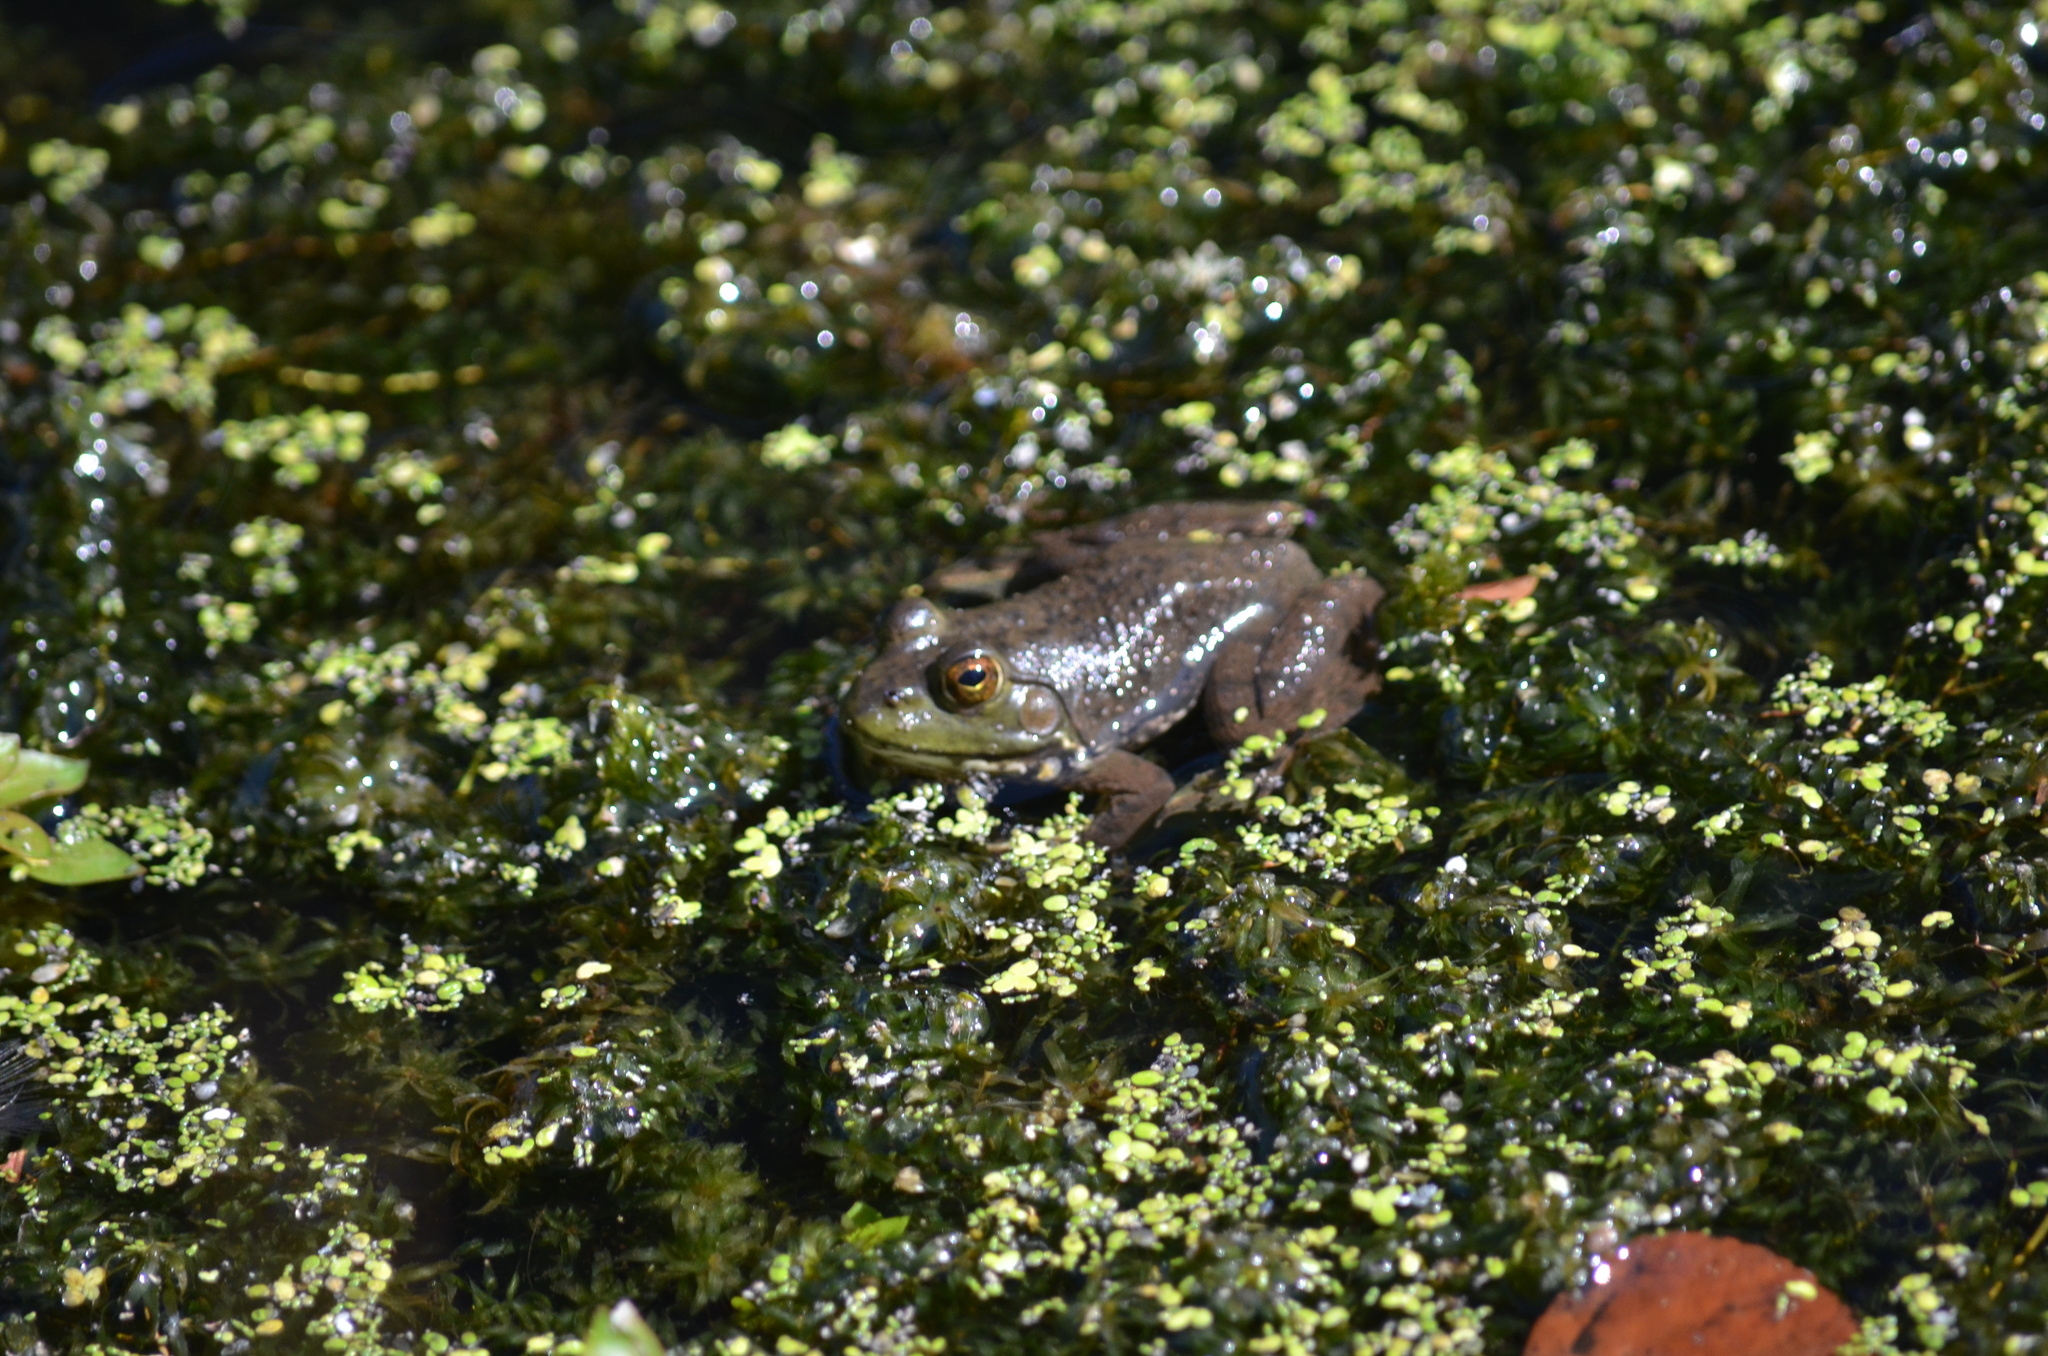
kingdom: Animalia
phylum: Chordata
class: Amphibia
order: Anura
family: Ranidae
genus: Lithobates
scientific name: Lithobates catesbeianus
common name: American bullfrog
